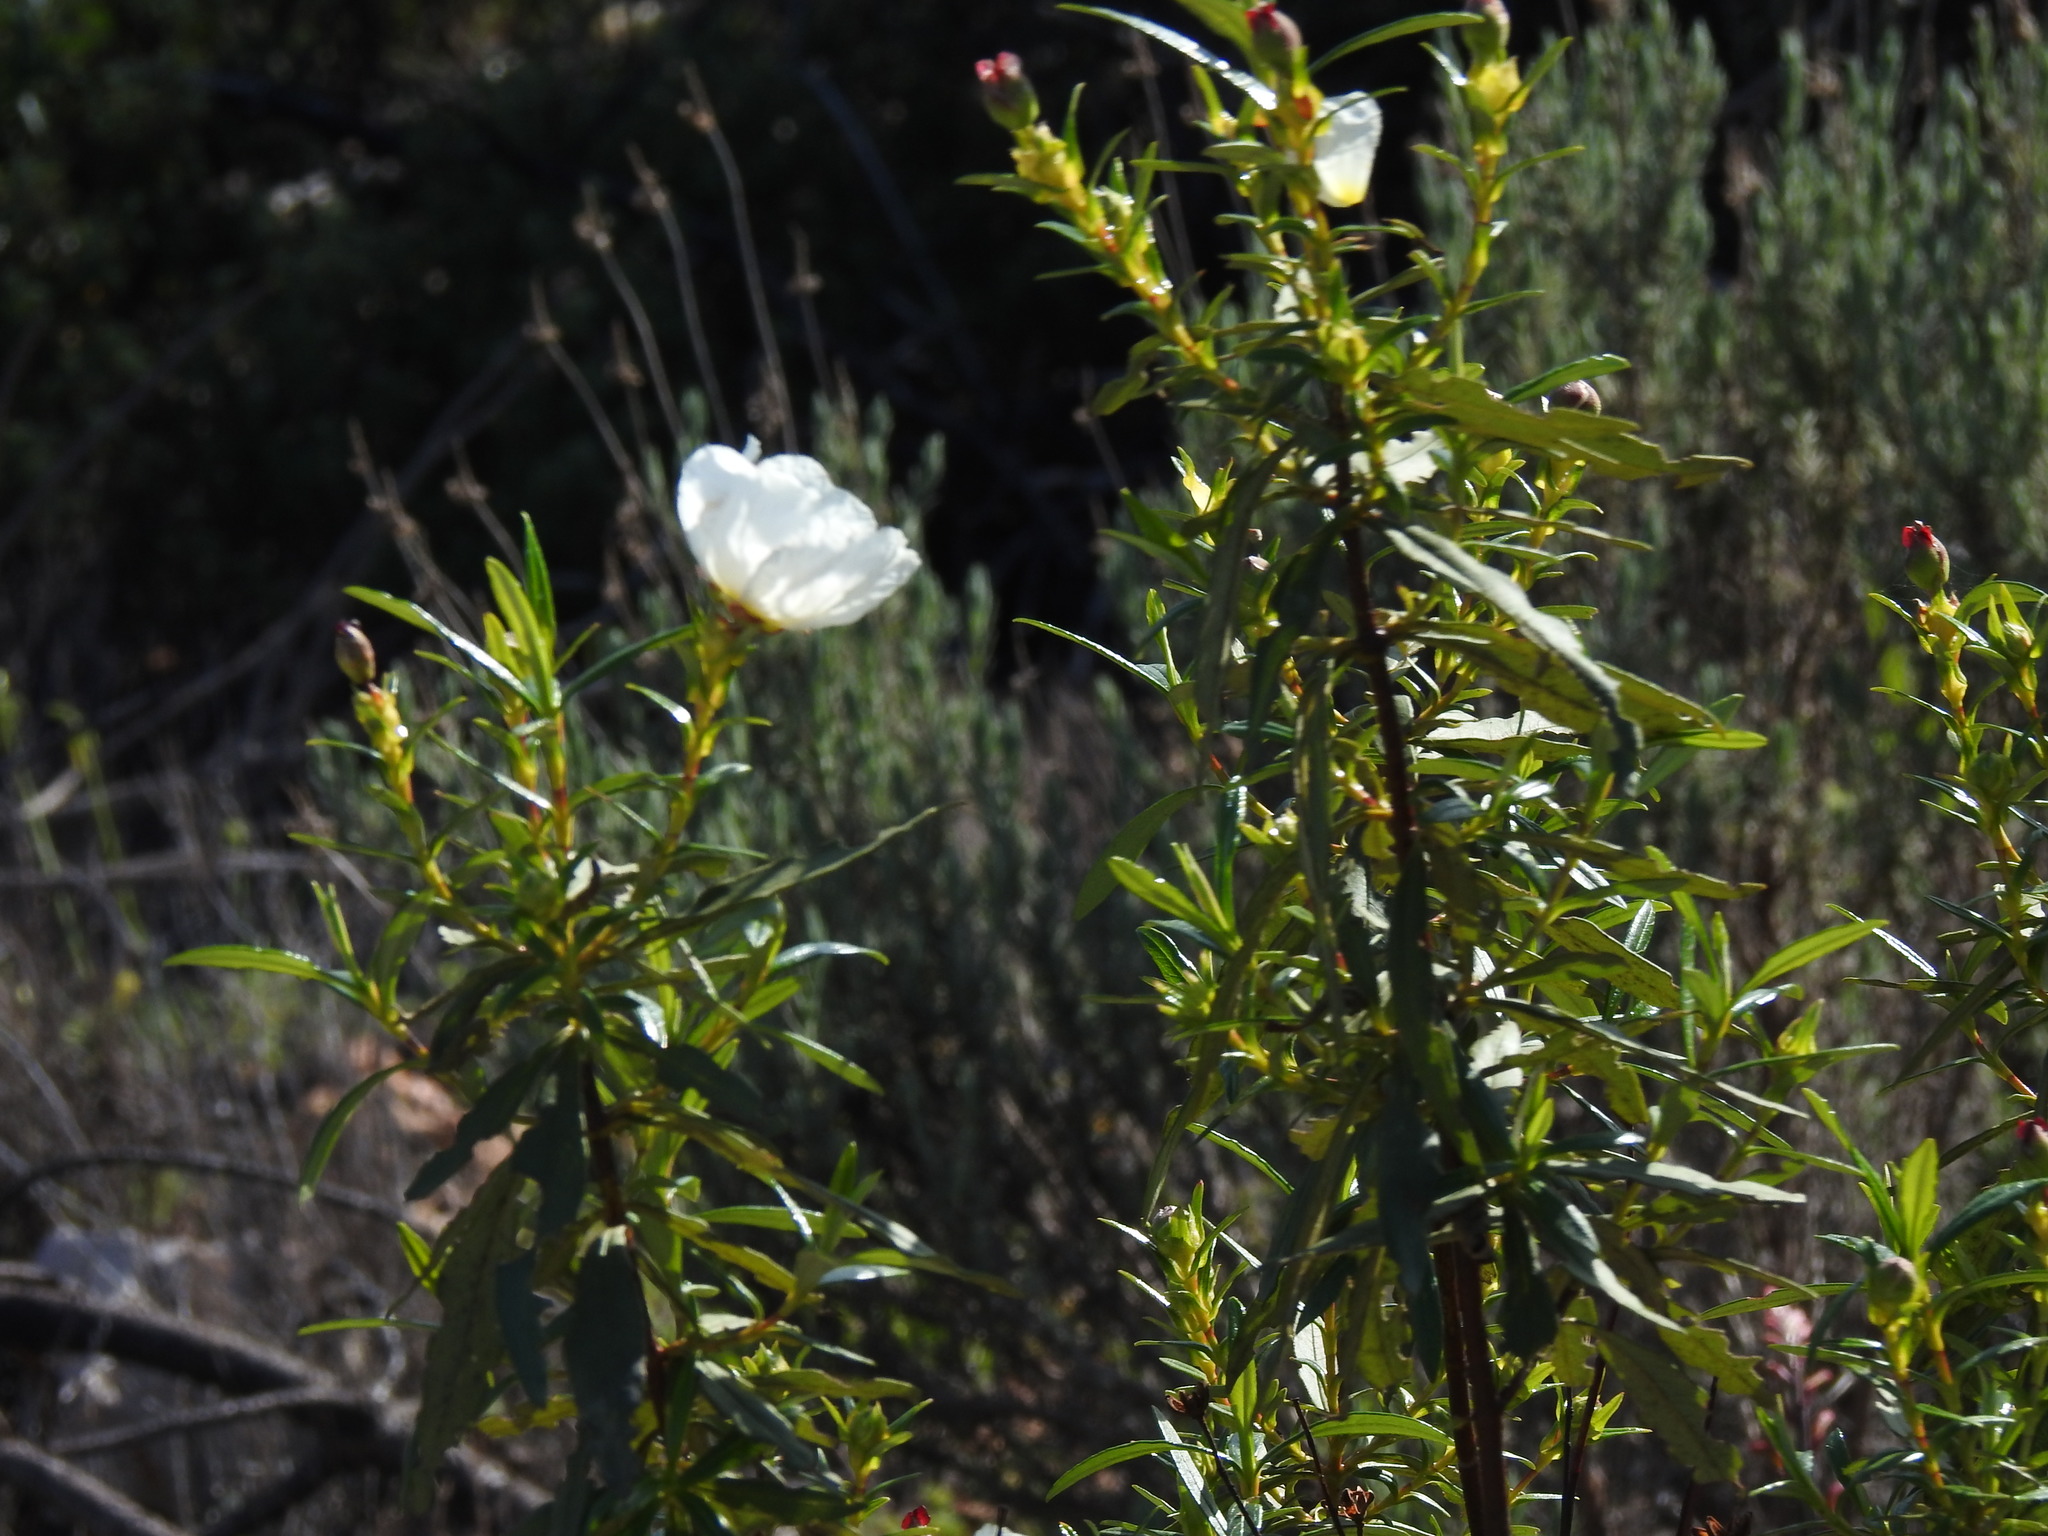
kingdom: Plantae
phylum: Tracheophyta
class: Magnoliopsida
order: Malvales
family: Cistaceae
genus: Cistus
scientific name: Cistus ladanifer
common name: Common gum cistus
